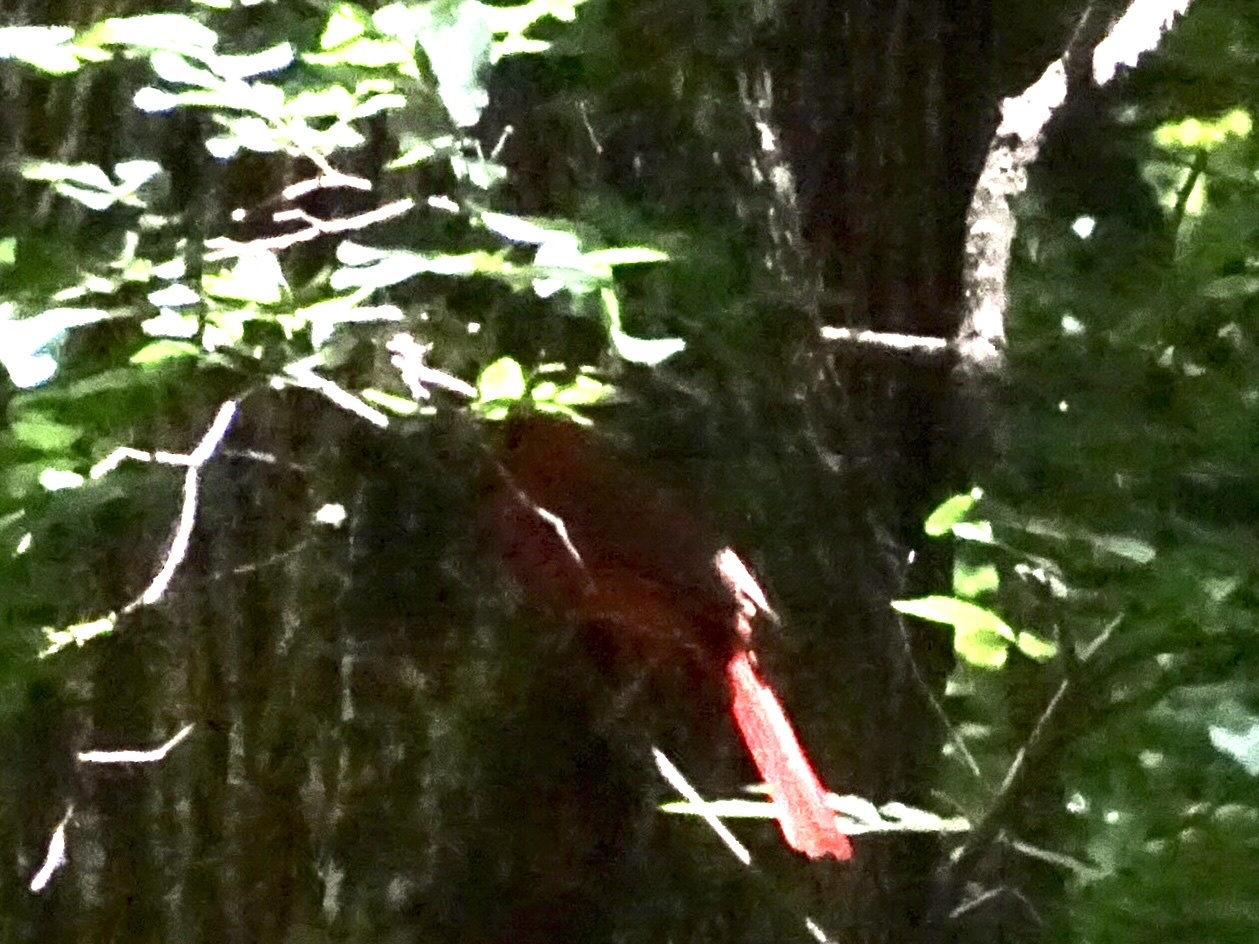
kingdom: Animalia
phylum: Chordata
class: Aves
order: Passeriformes
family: Cardinalidae
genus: Cardinalis
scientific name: Cardinalis cardinalis
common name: Northern cardinal
